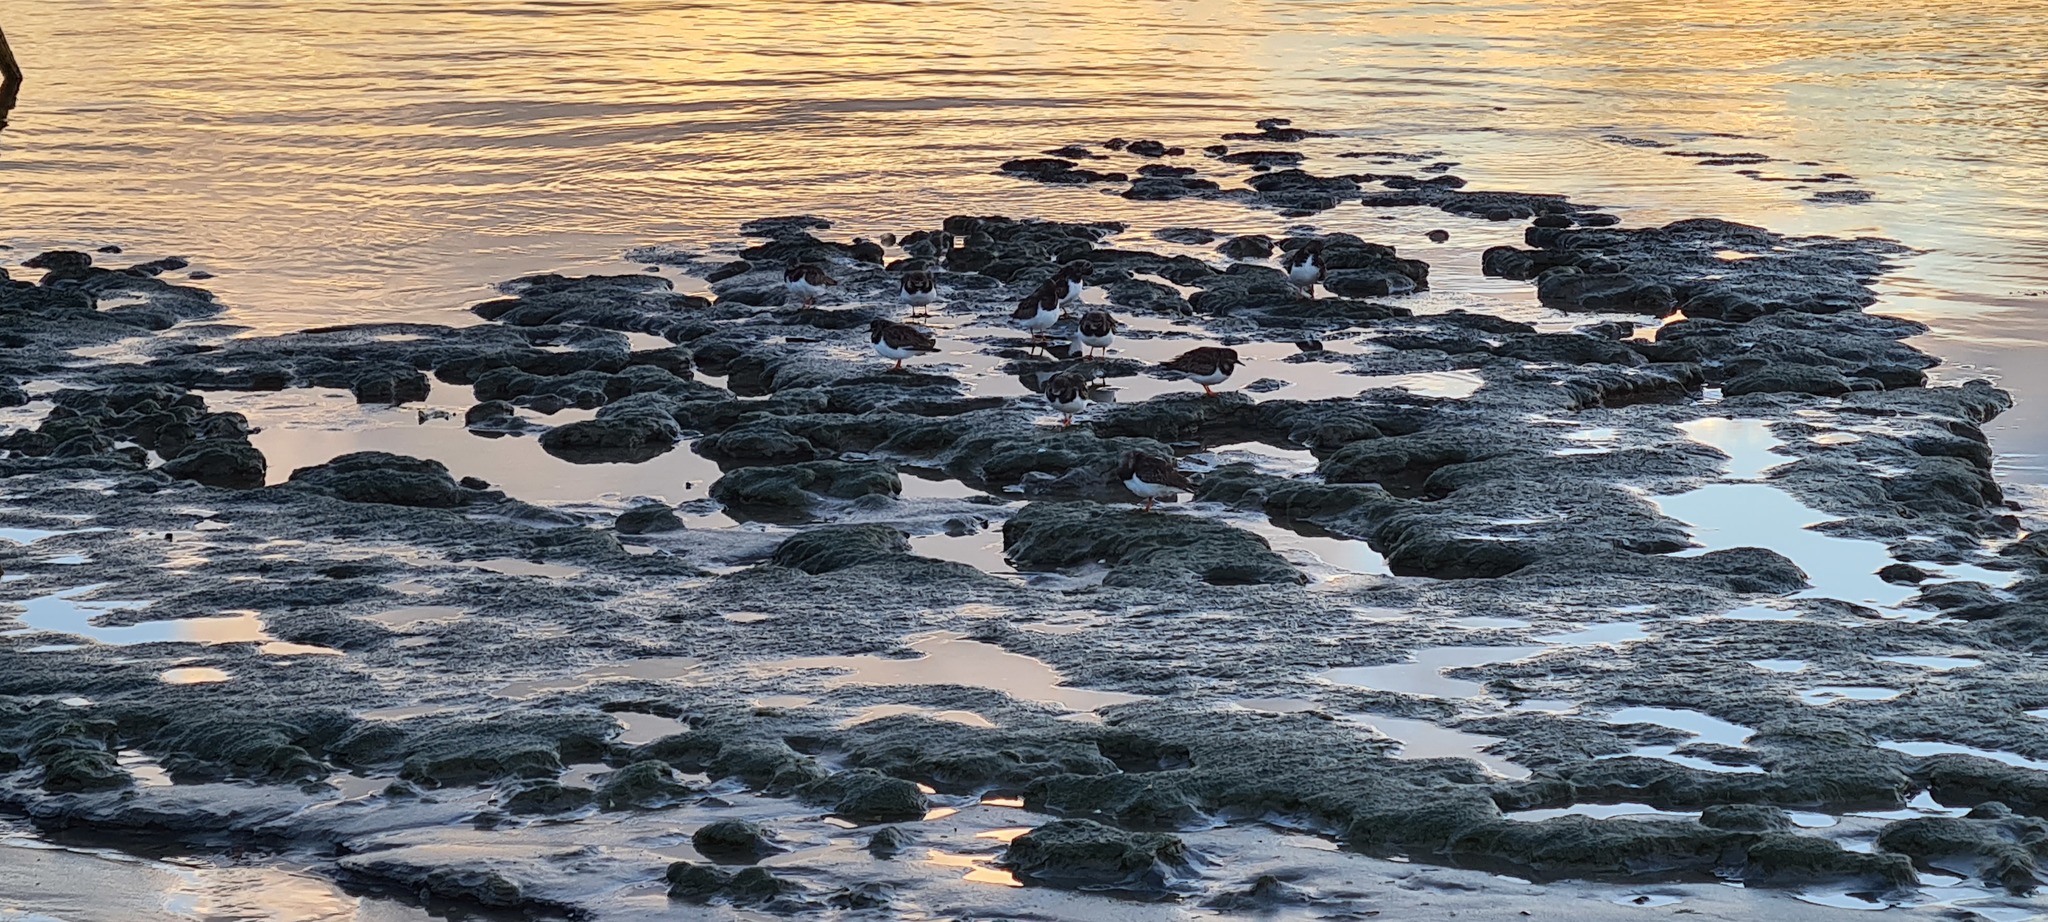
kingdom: Animalia
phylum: Chordata
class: Aves
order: Charadriiformes
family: Scolopacidae
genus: Arenaria
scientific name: Arenaria interpres
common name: Ruddy turnstone
